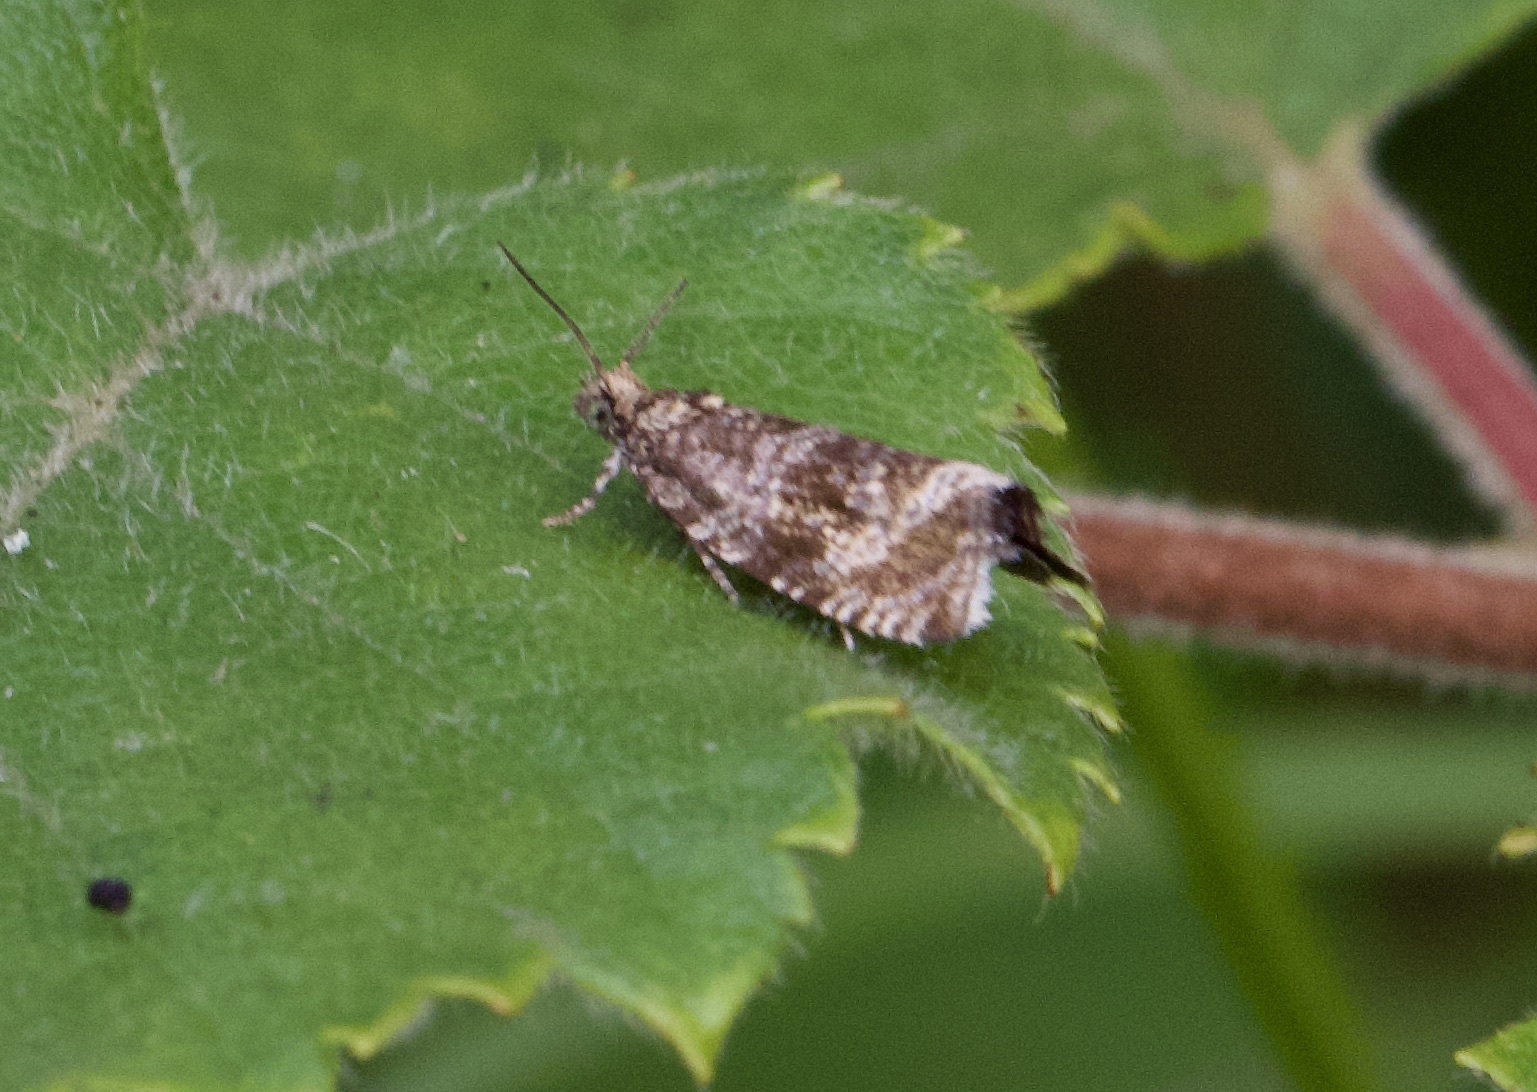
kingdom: Animalia
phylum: Arthropoda
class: Insecta
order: Lepidoptera
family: Tortricidae
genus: Syricoris
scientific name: Syricoris lacunana
